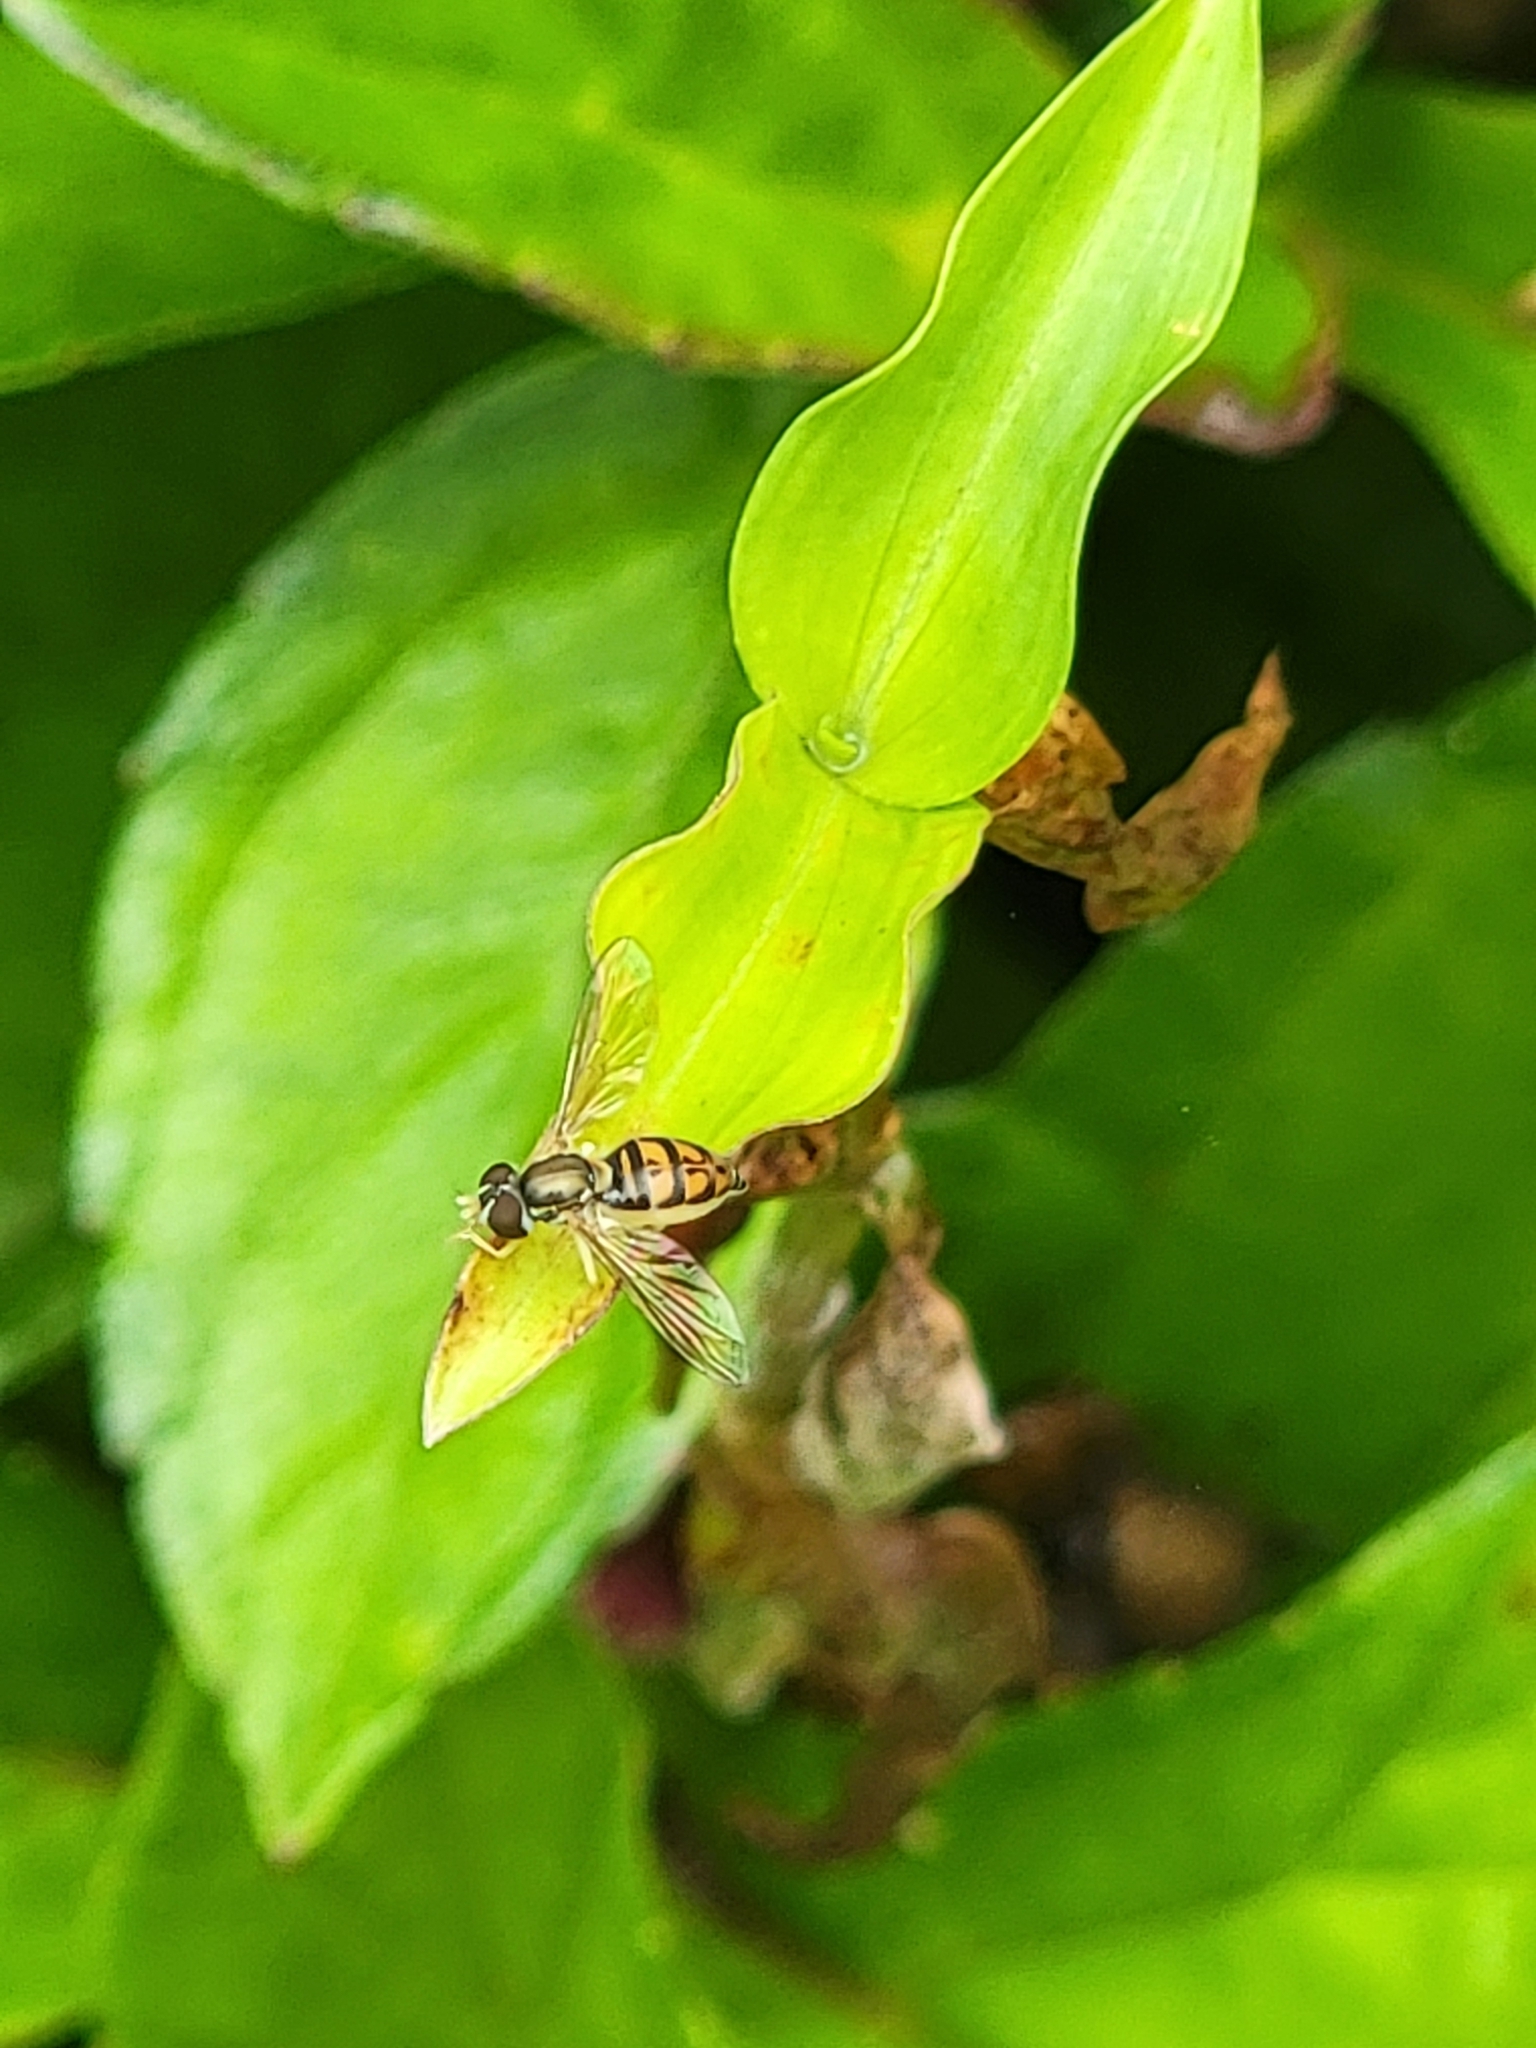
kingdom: Animalia
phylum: Arthropoda
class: Insecta
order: Diptera
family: Syrphidae
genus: Toxomerus
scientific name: Toxomerus marginatus
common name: Syrphid fly
